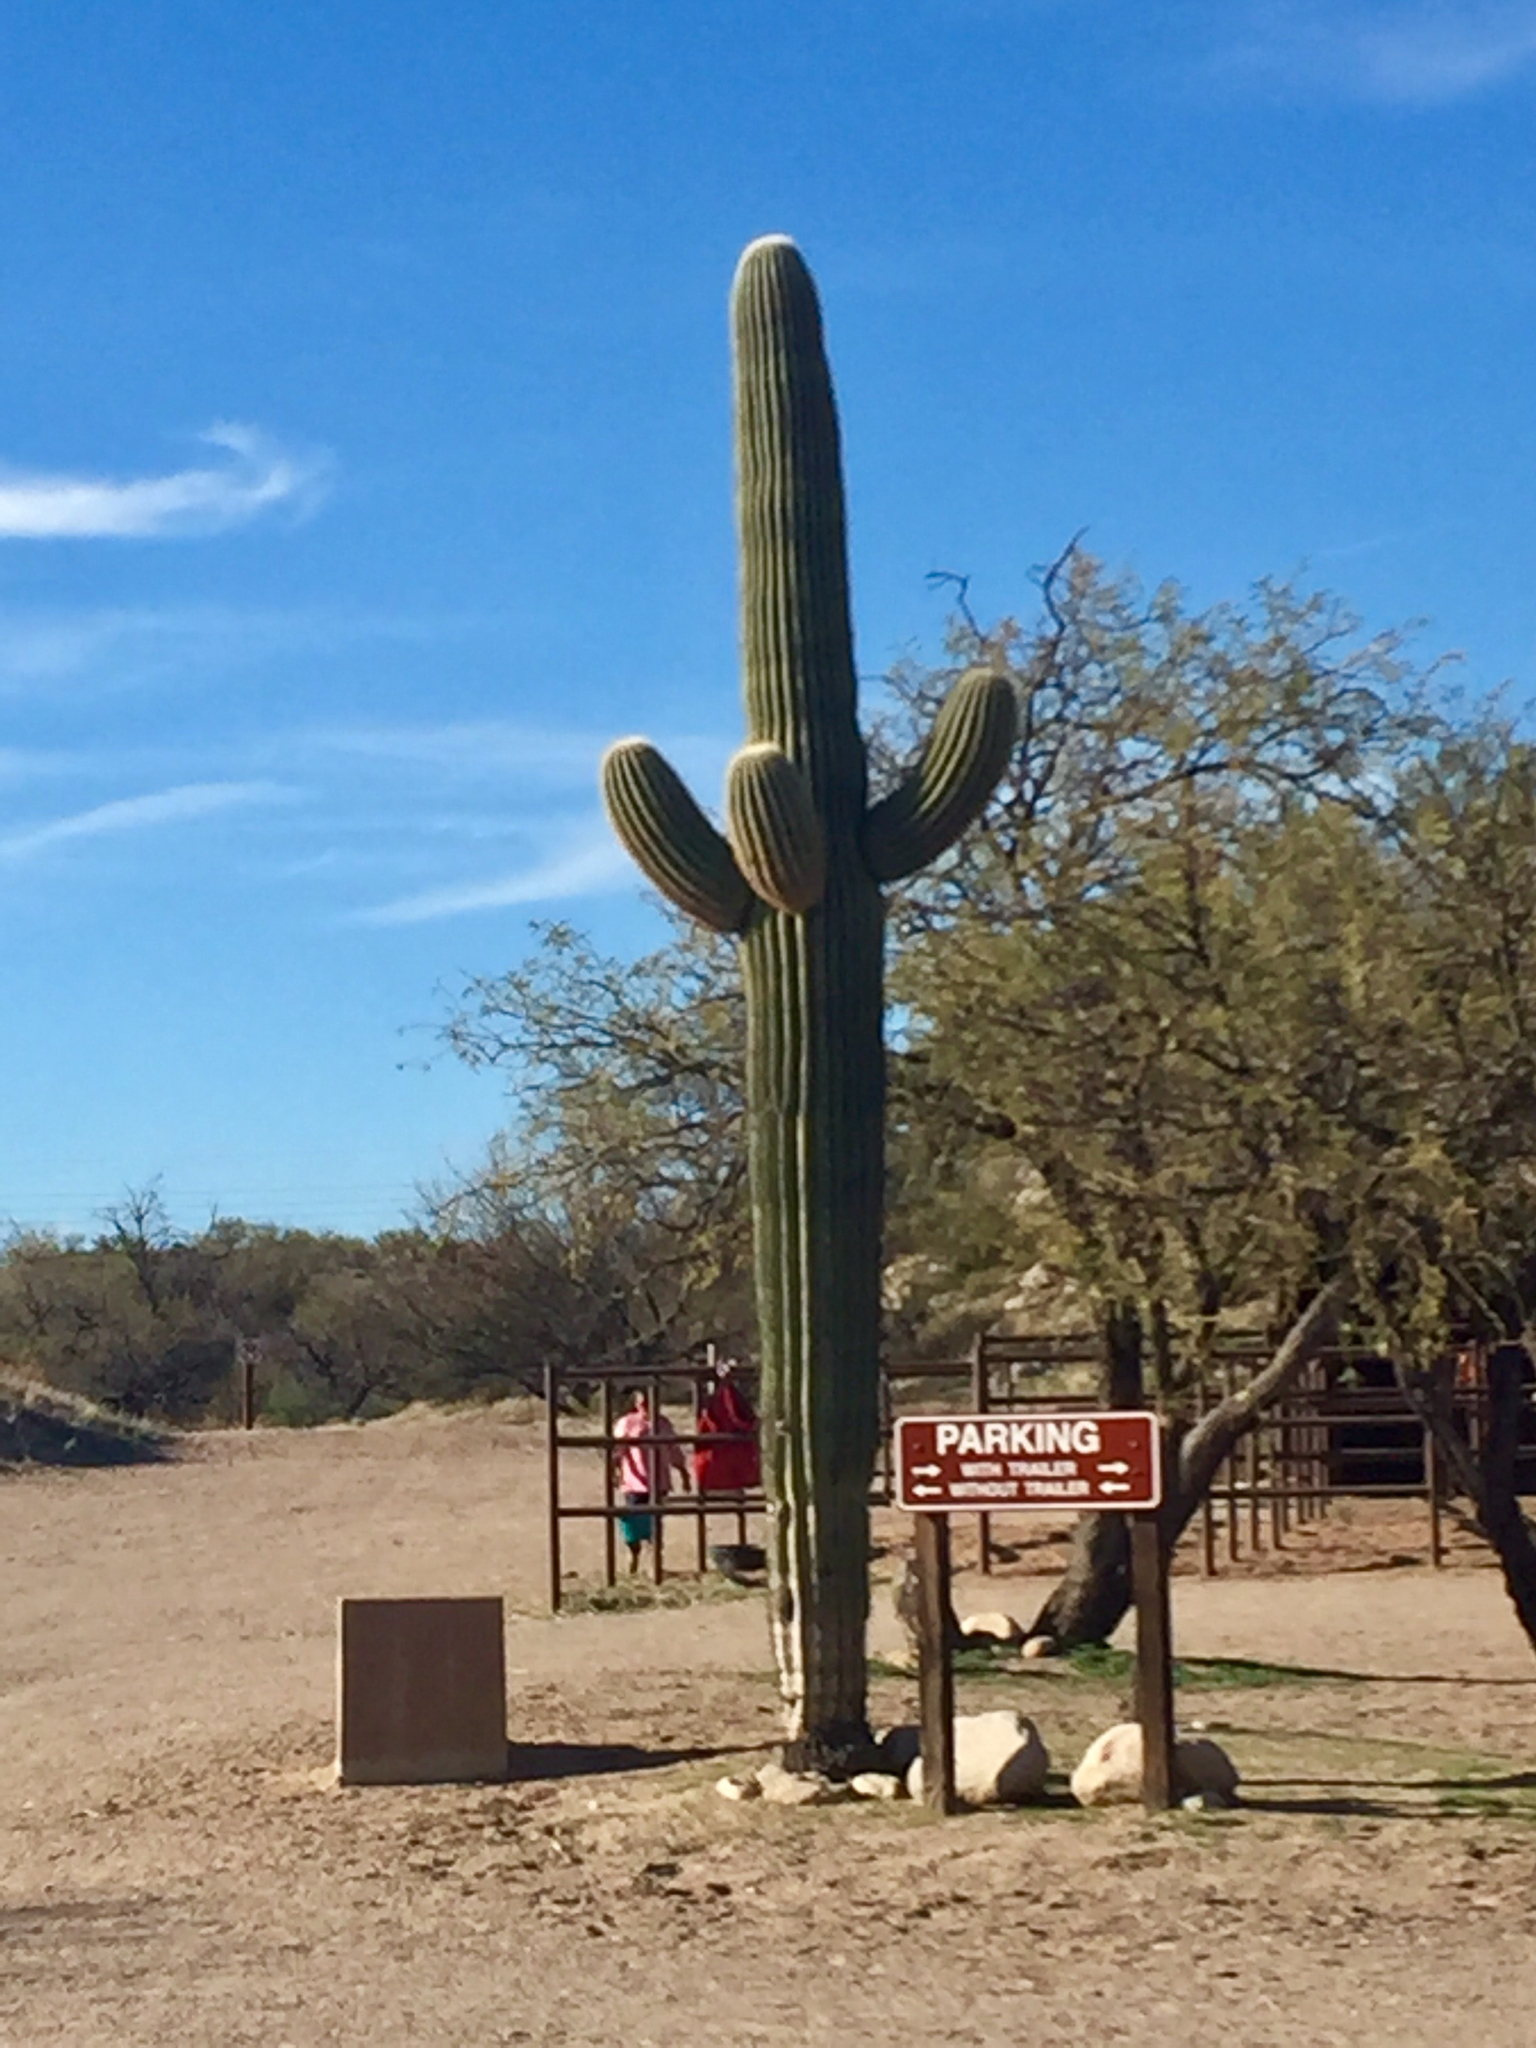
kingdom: Plantae
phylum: Tracheophyta
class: Magnoliopsida
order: Caryophyllales
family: Cactaceae
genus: Carnegiea
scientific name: Carnegiea gigantea
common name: Saguaro
